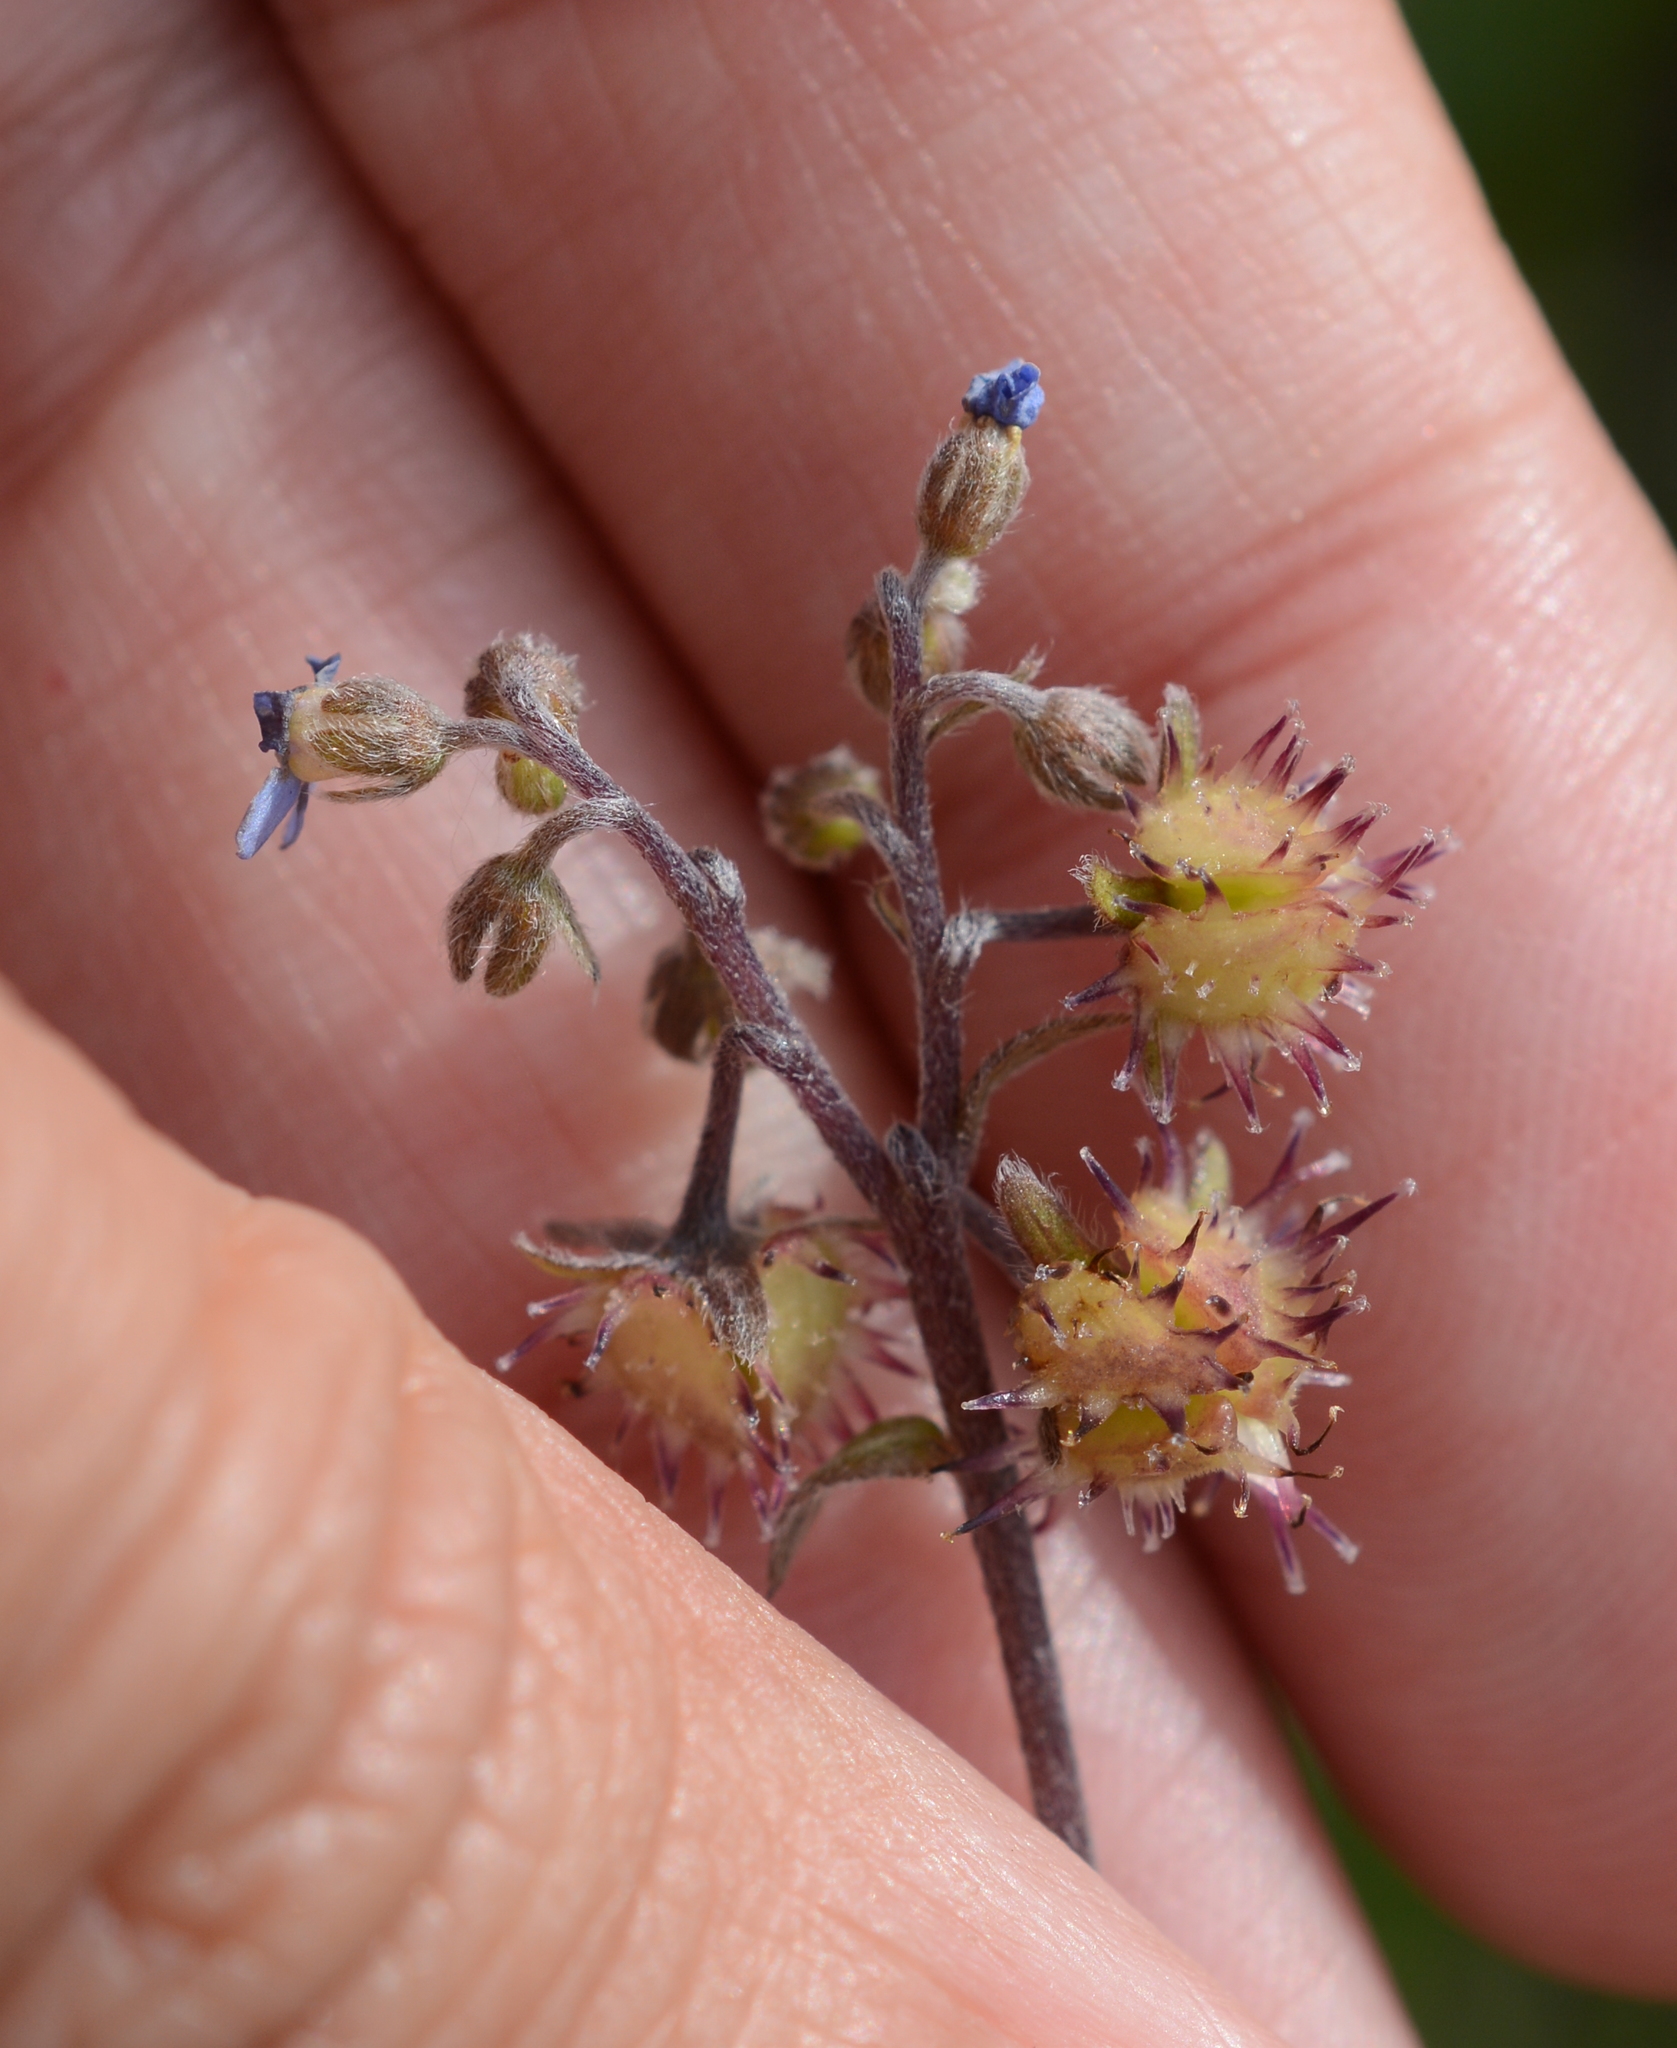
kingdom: Plantae
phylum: Tracheophyta
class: Magnoliopsida
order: Boraginales
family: Boraginaceae
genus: Hackelia
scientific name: Hackelia micrantha
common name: Meadow stickseed
